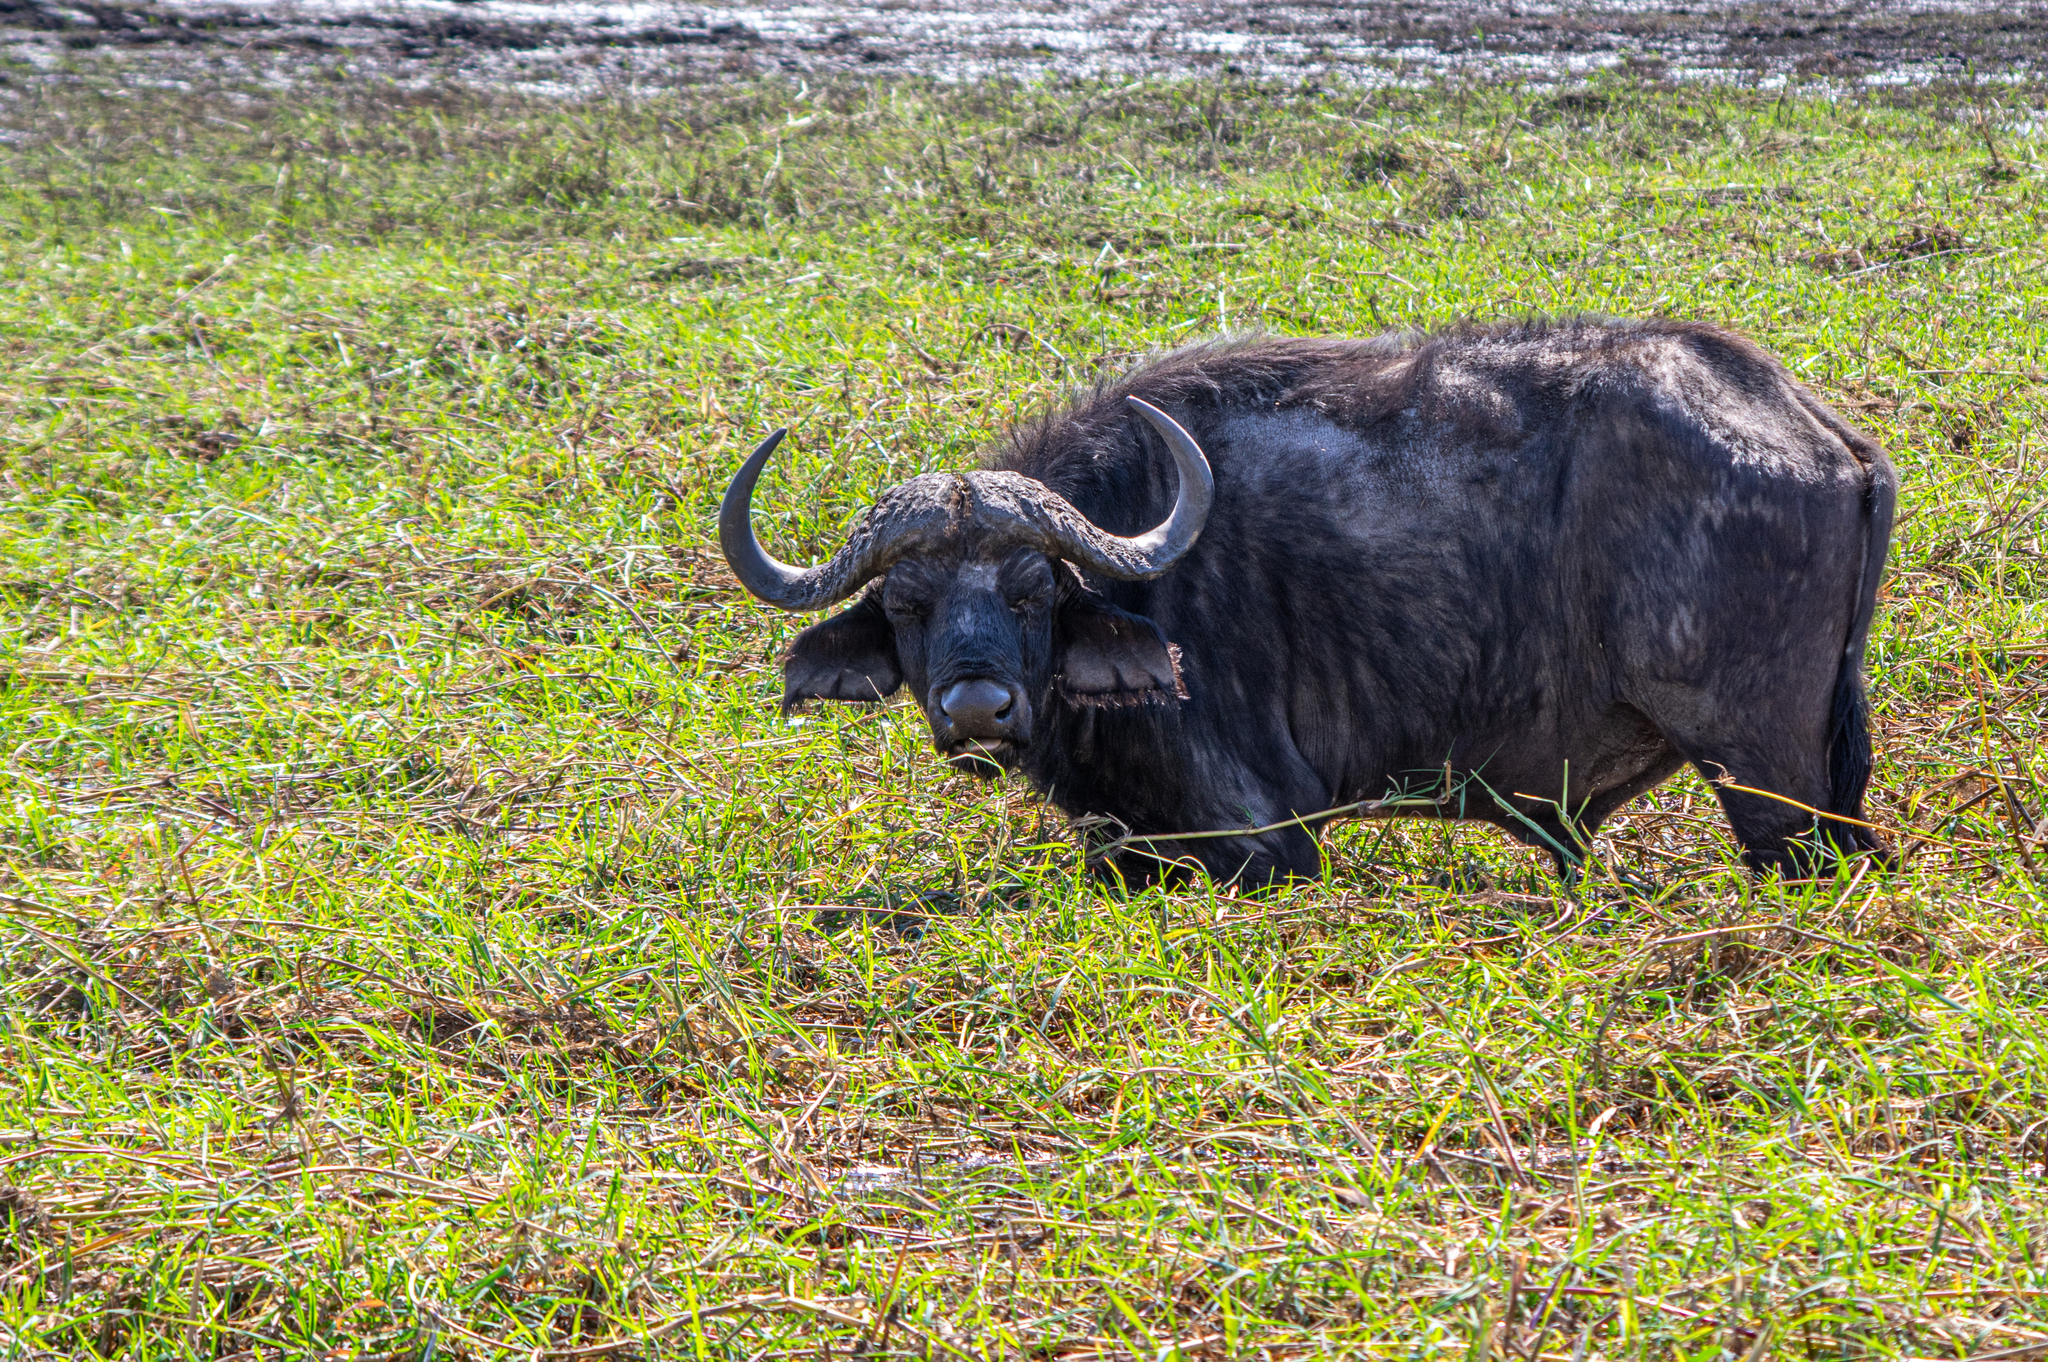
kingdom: Animalia
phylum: Chordata
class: Mammalia
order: Artiodactyla
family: Bovidae
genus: Syncerus
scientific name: Syncerus caffer
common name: African buffalo
